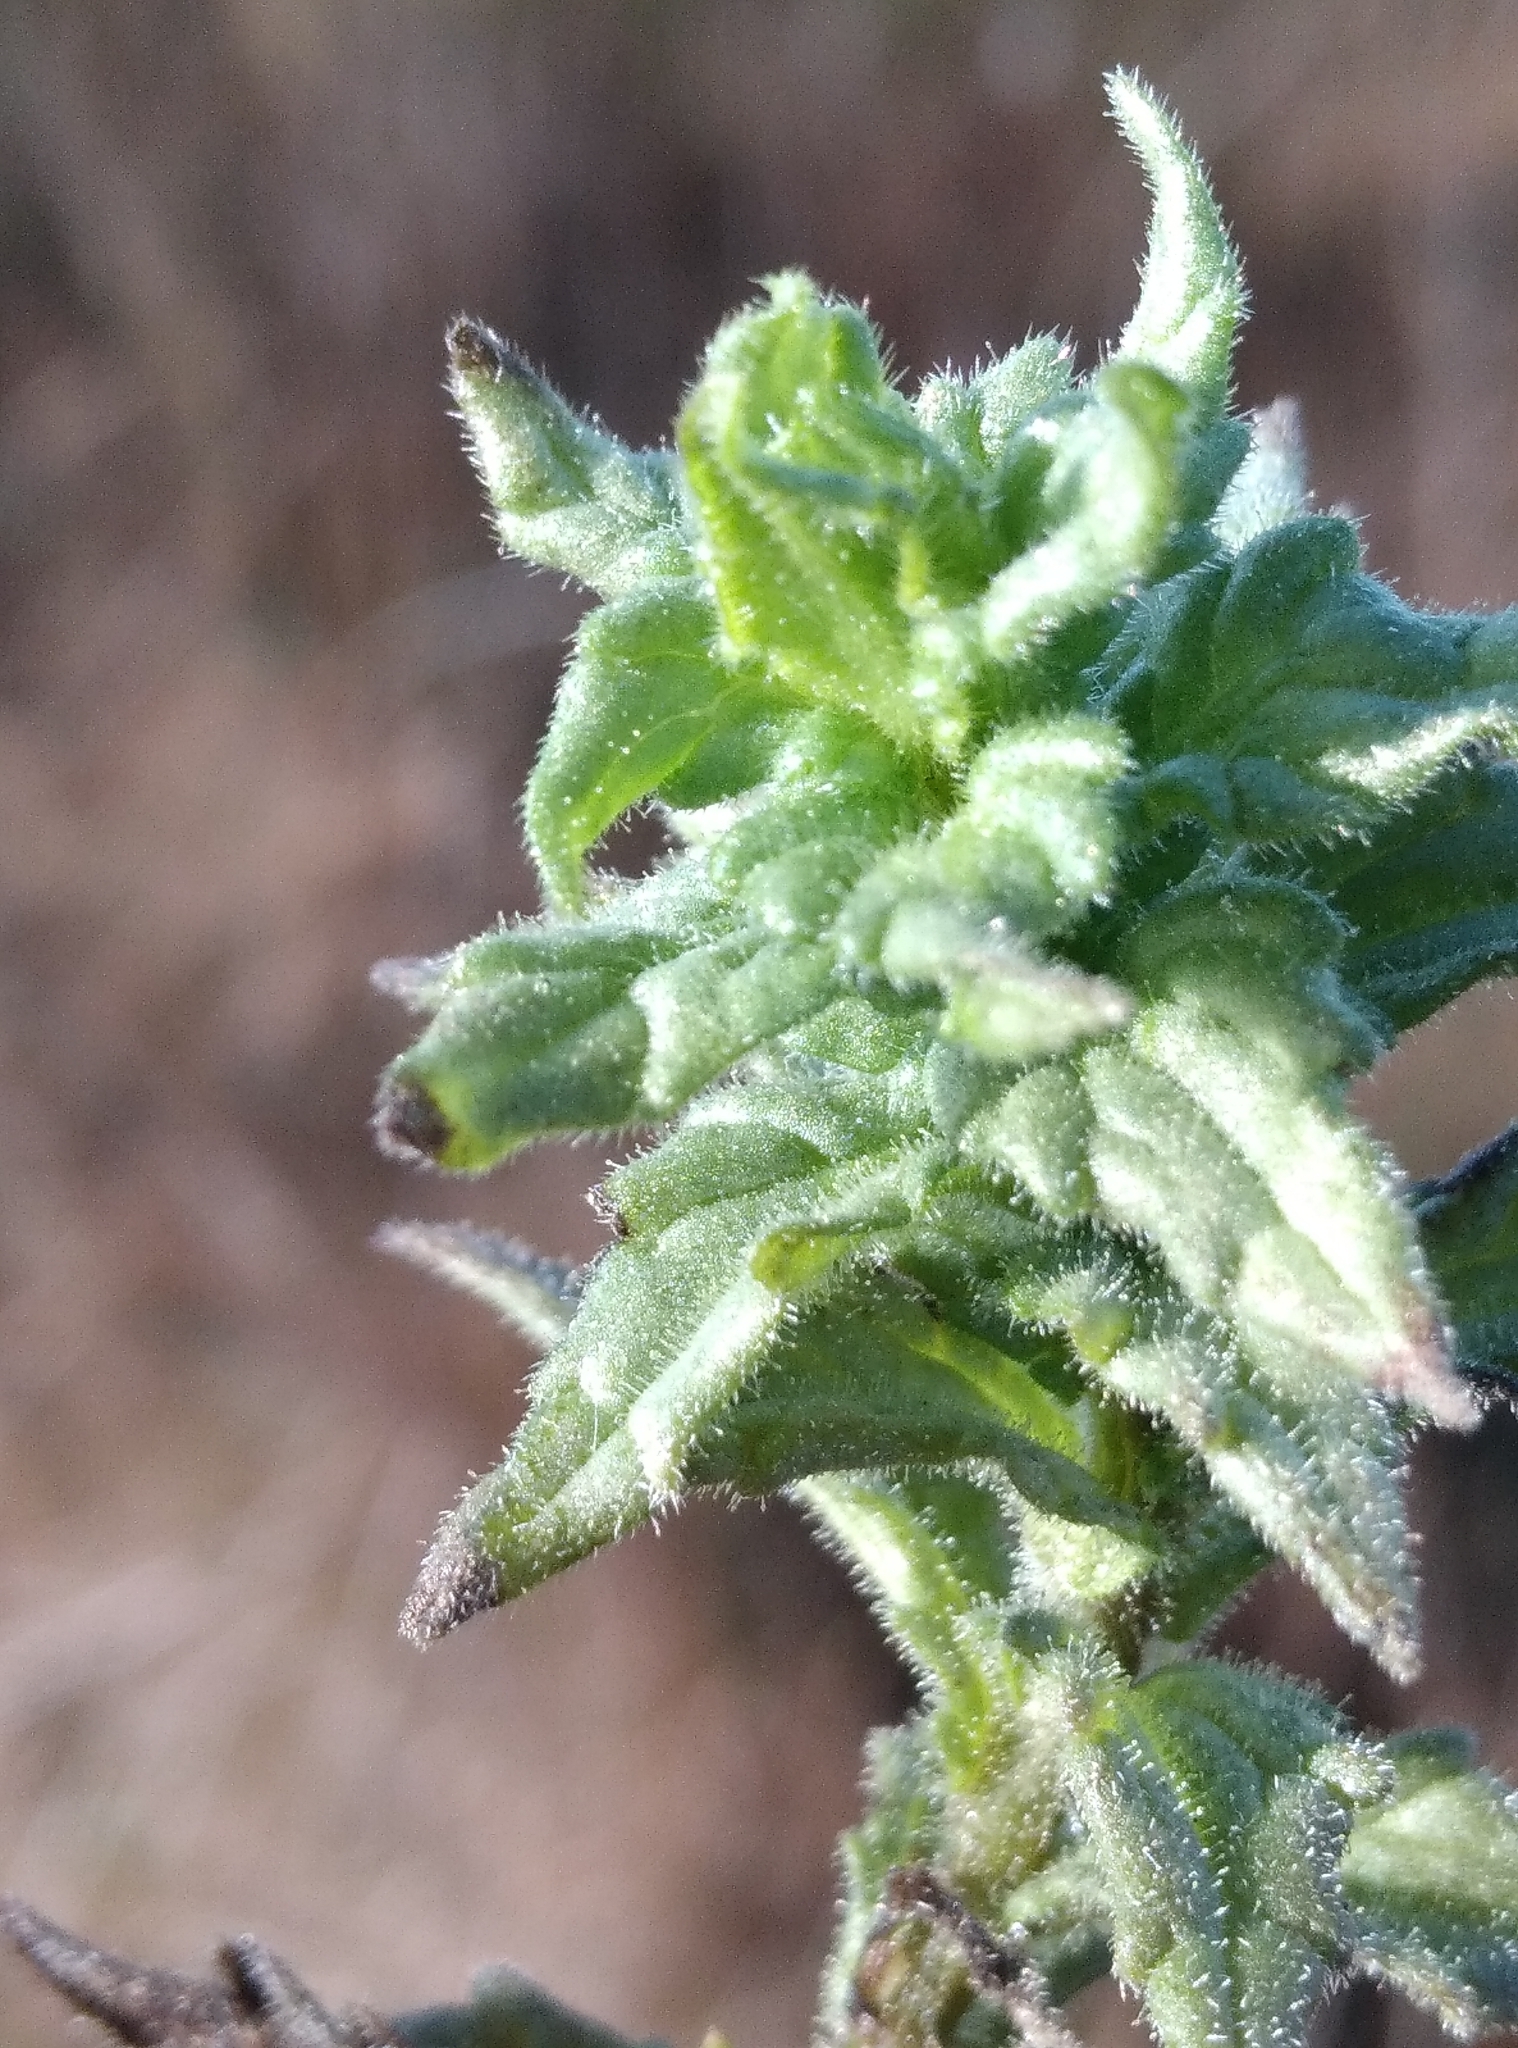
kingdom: Plantae
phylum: Tracheophyta
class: Magnoliopsida
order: Lamiales
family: Orobanchaceae
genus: Bellardia
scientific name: Bellardia viscosa
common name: Sticky parentucellia
